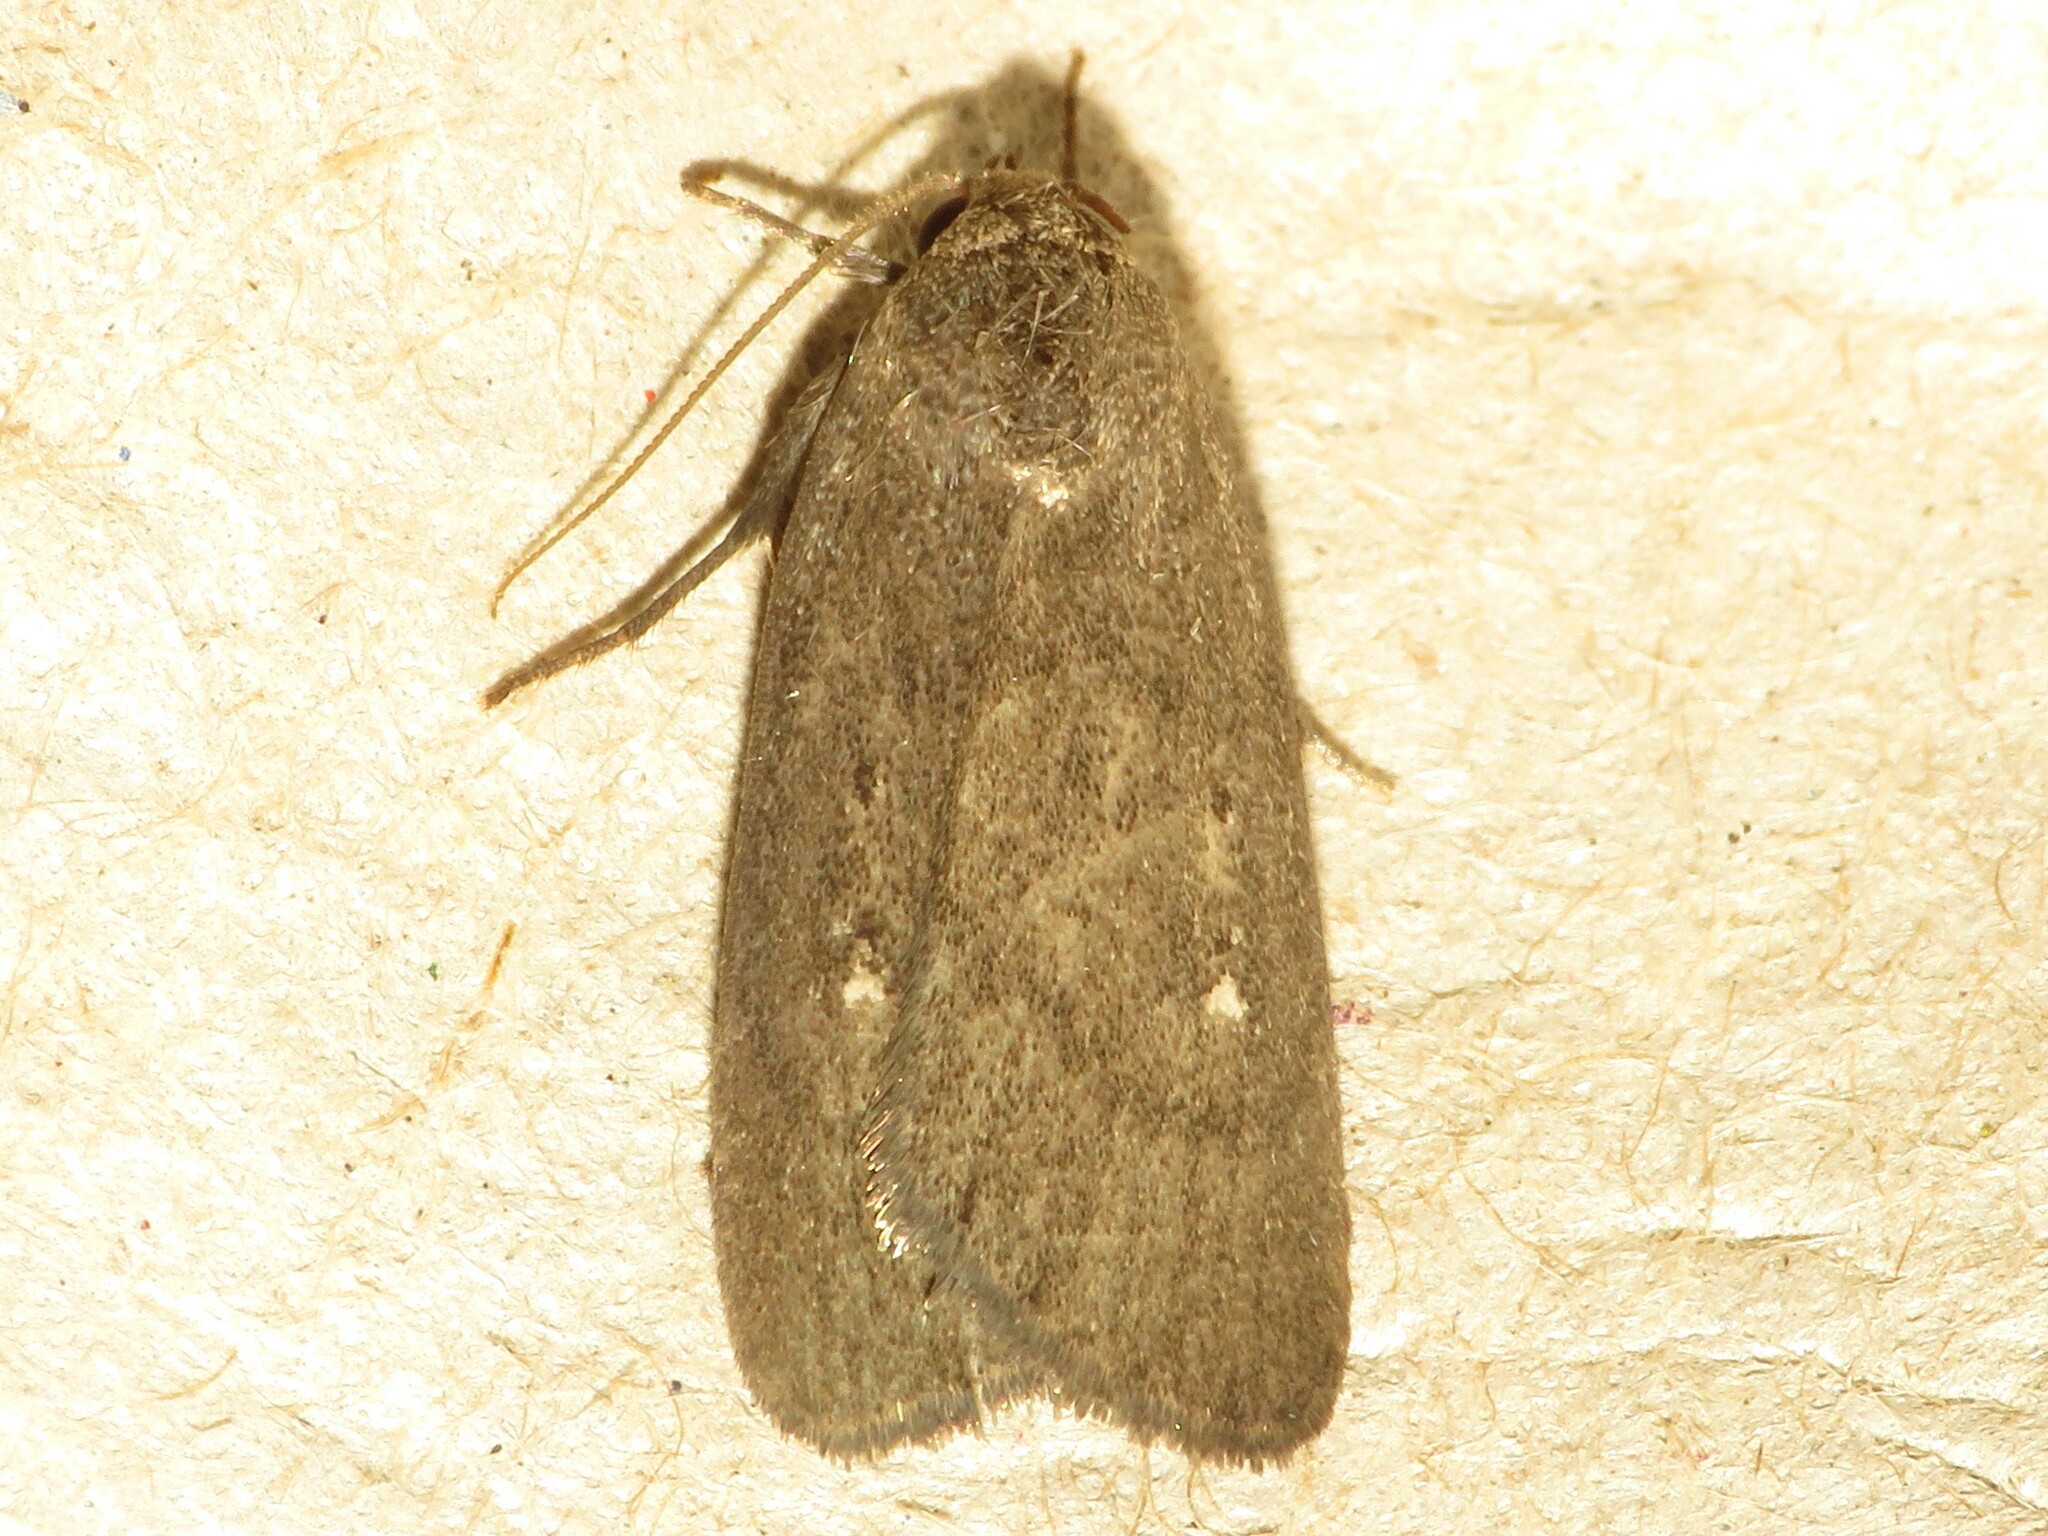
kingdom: Animalia
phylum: Arthropoda
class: Insecta
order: Lepidoptera
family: Noctuidae
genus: Proxenus
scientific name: Proxenus miranda
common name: Miranda moth
